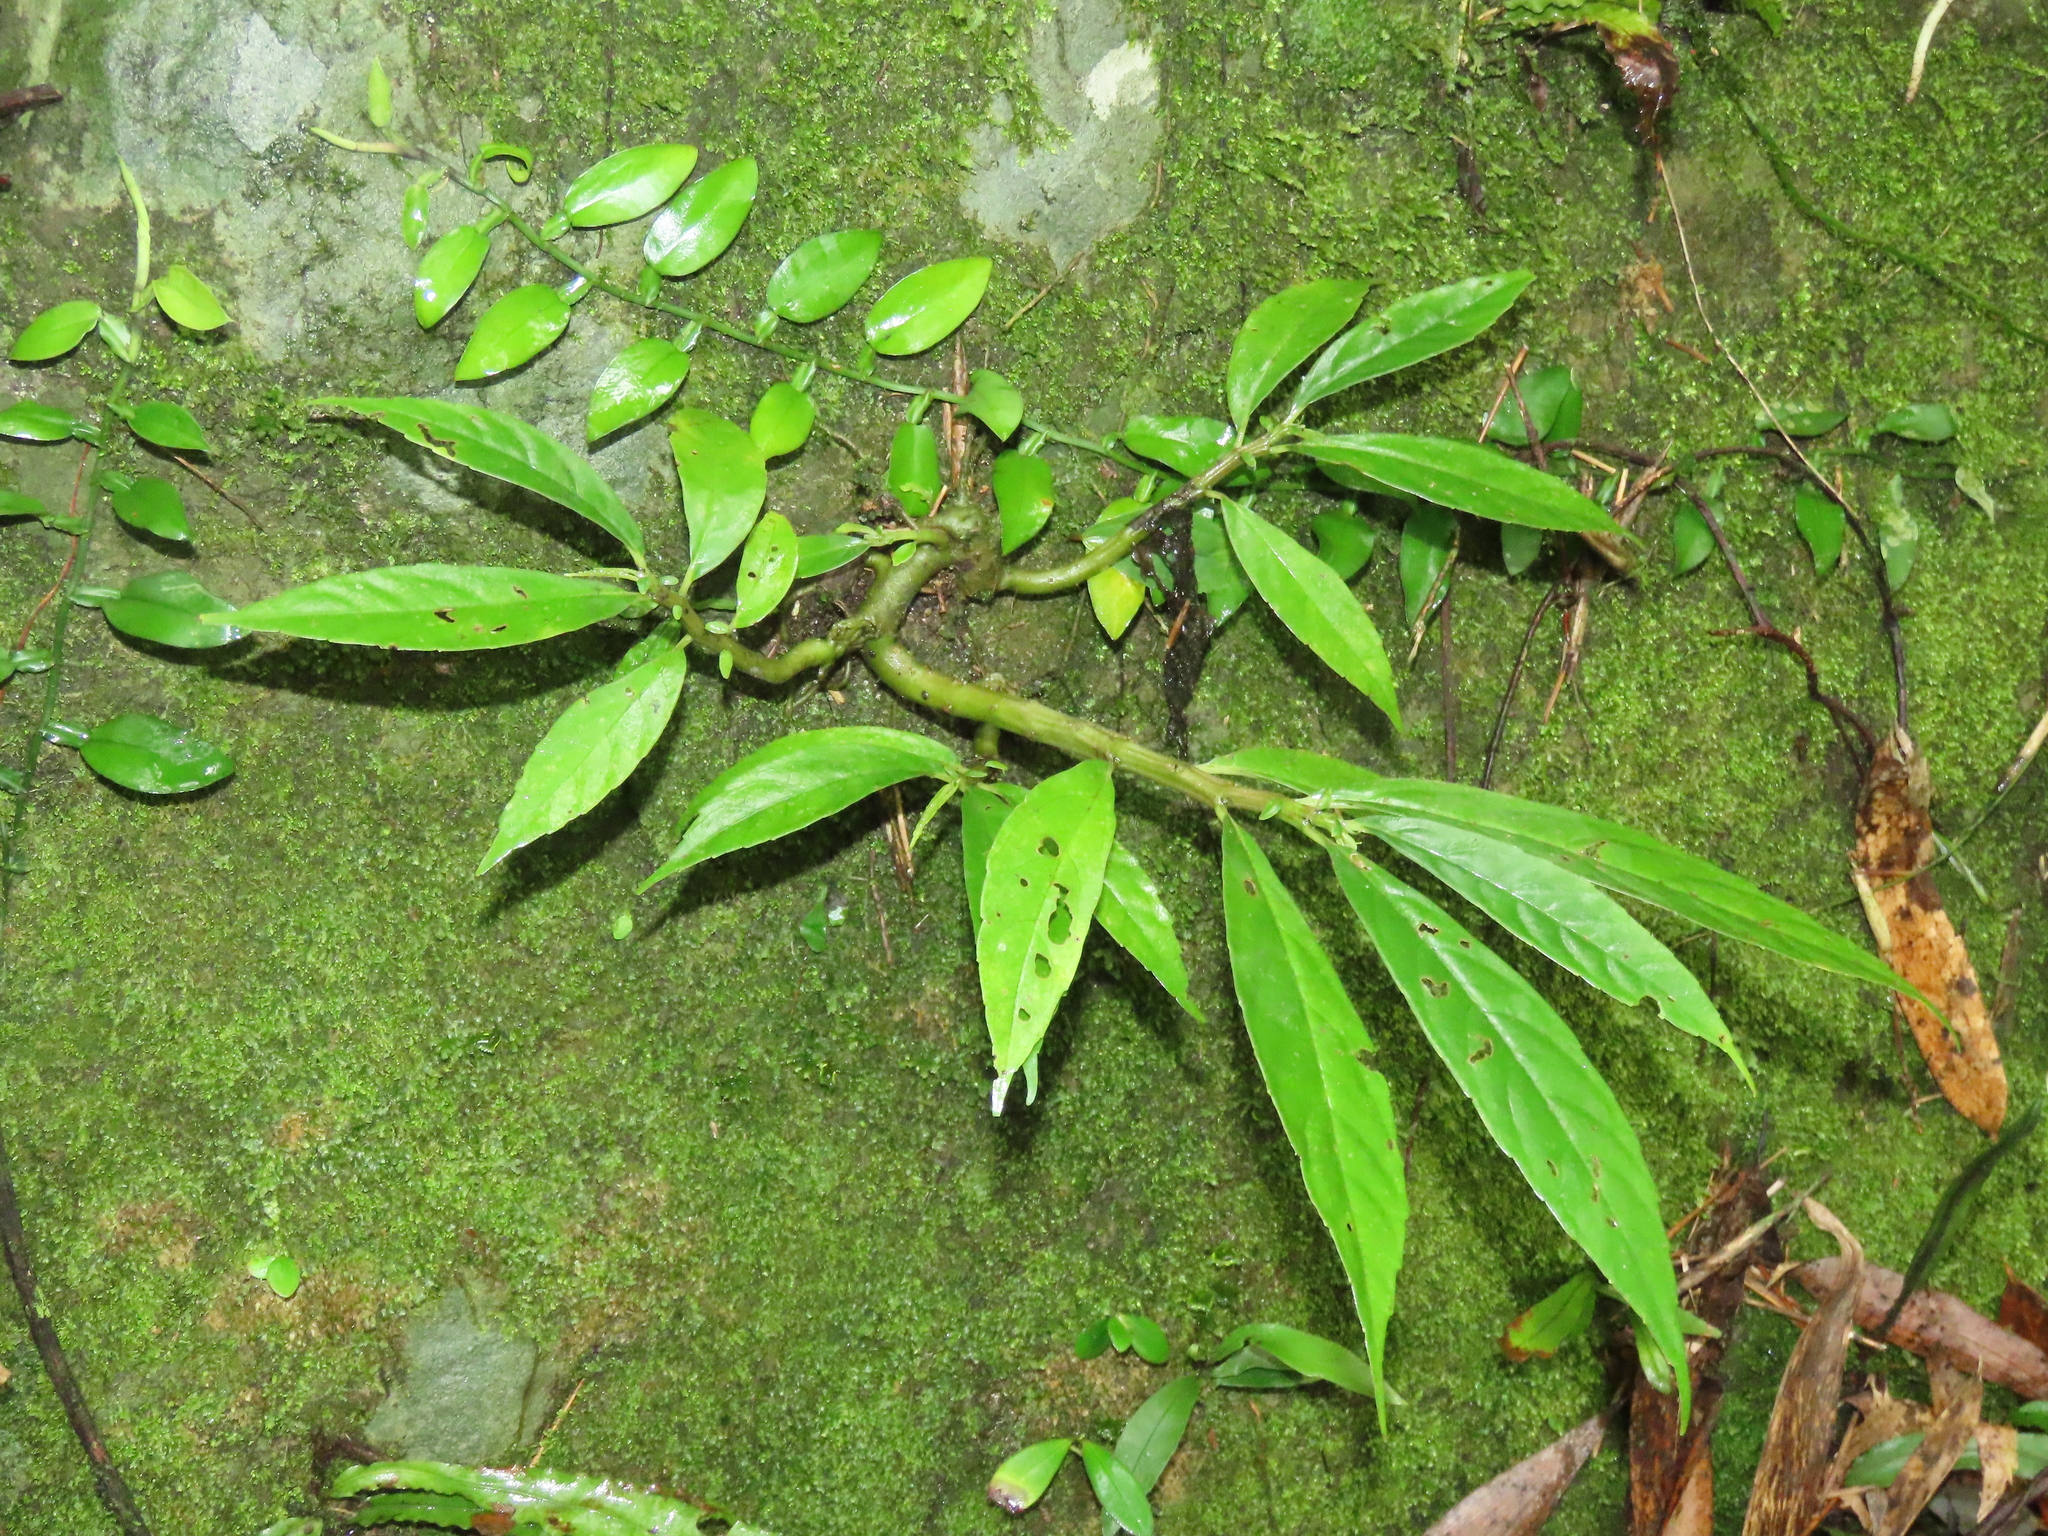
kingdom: Plantae
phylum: Tracheophyta
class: Liliopsida
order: Alismatales
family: Araceae
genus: Pothos
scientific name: Pothos chinensis
